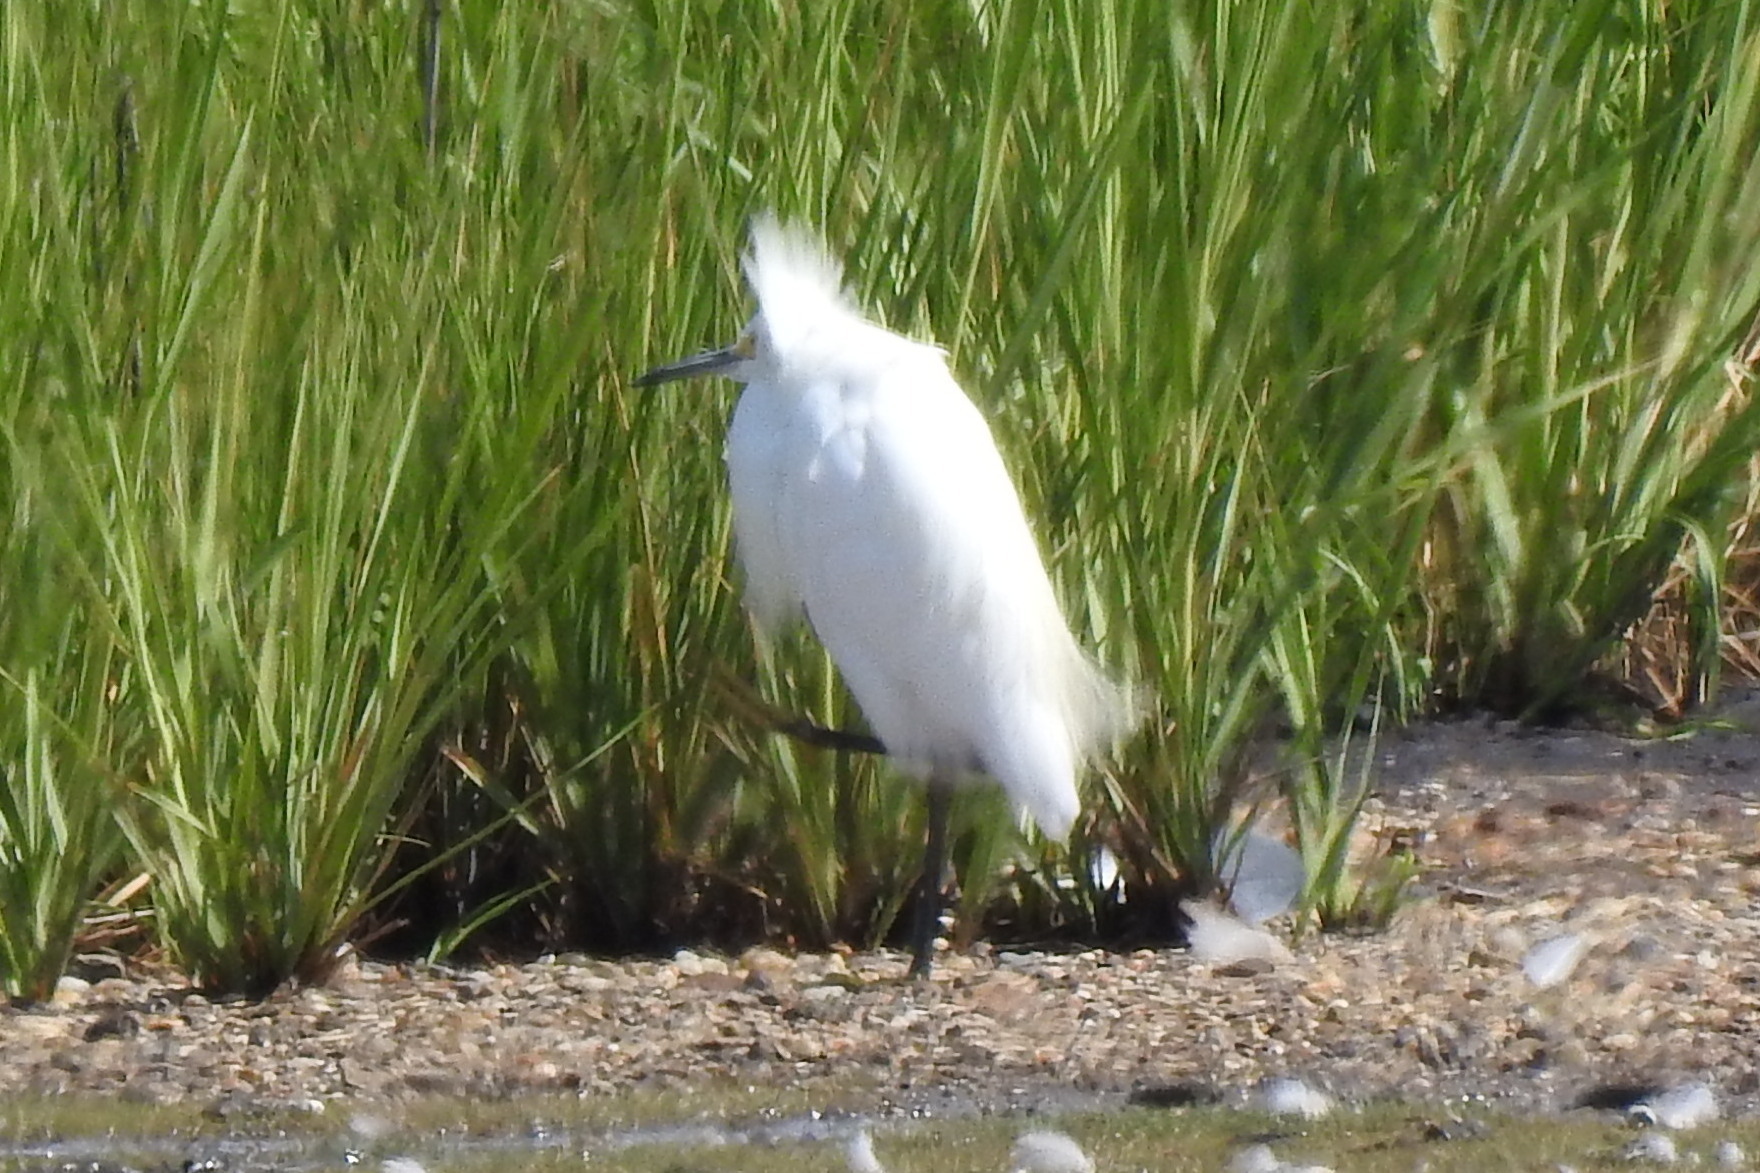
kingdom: Animalia
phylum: Chordata
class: Aves
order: Pelecaniformes
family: Ardeidae
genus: Egretta
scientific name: Egretta thula
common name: Snowy egret
